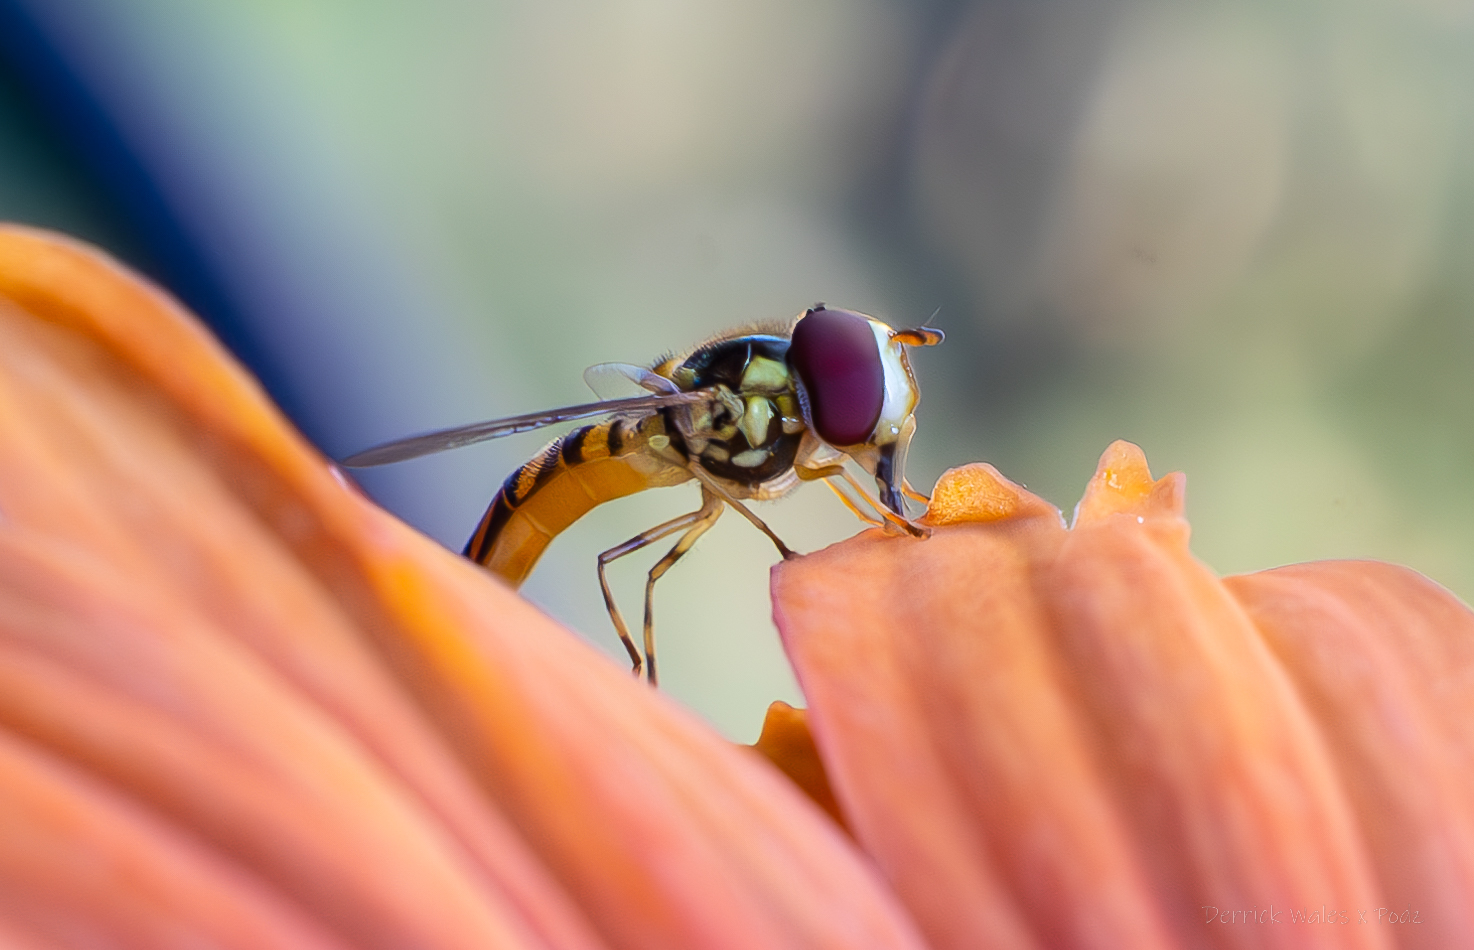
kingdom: Animalia
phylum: Arthropoda
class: Insecta
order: Diptera
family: Syrphidae
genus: Allograpta
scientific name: Allograpta obliqua
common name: Common oblique syrphid
